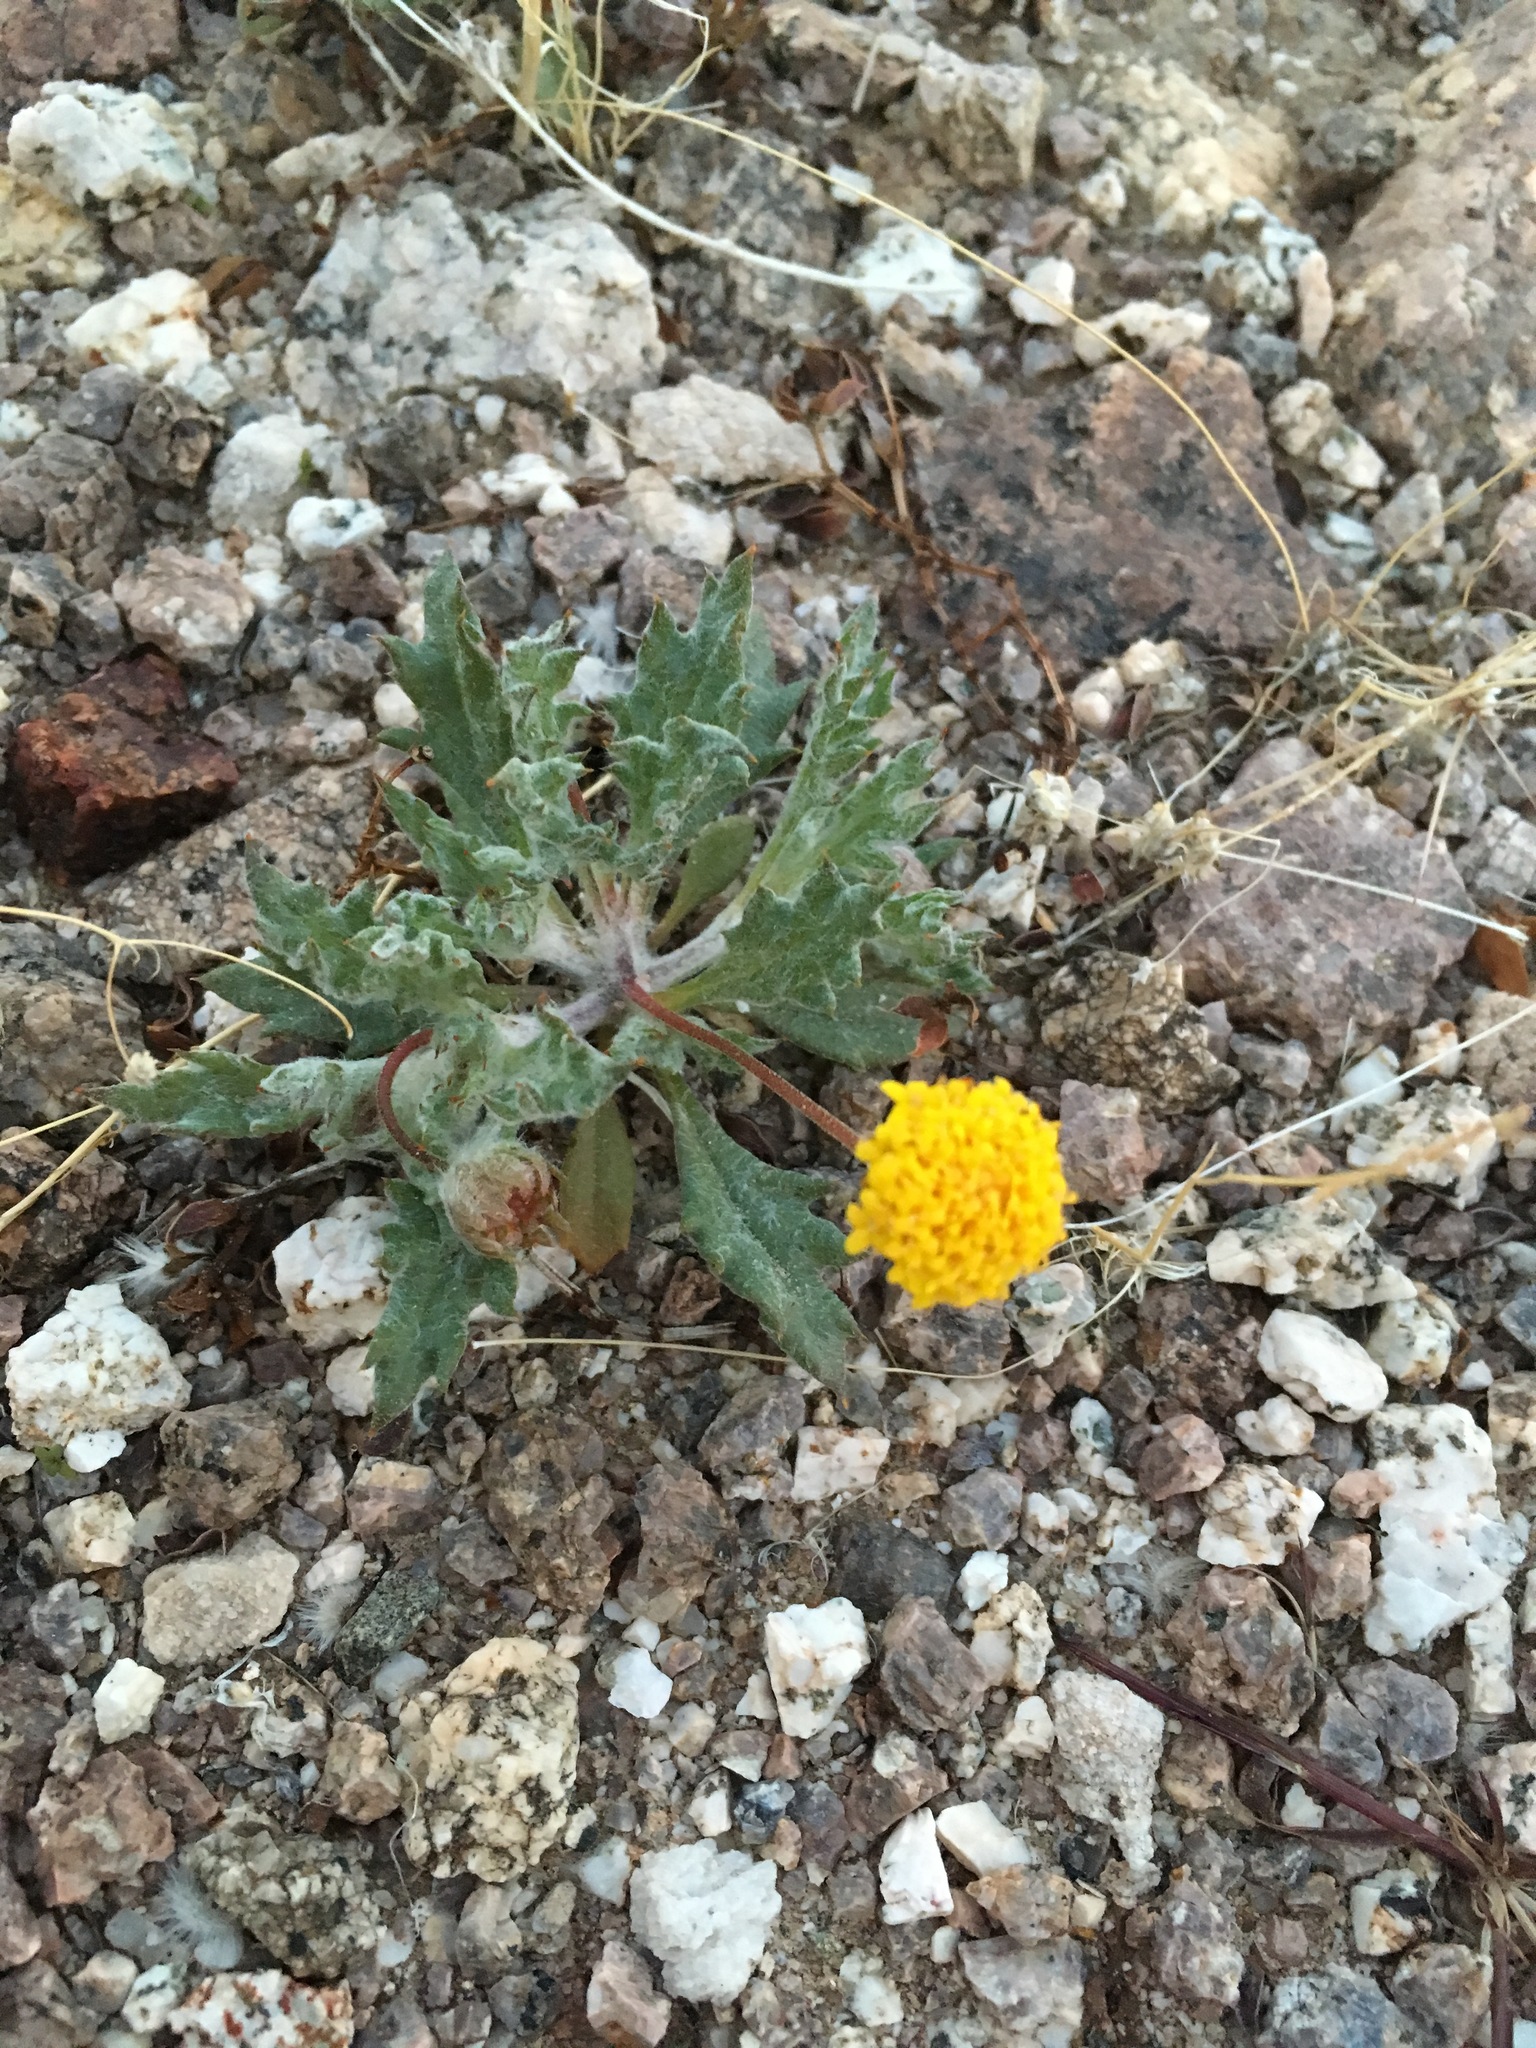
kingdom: Plantae
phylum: Tracheophyta
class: Magnoliopsida
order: Asterales
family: Asteraceae
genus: Trichoptilium
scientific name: Trichoptilium incisum
